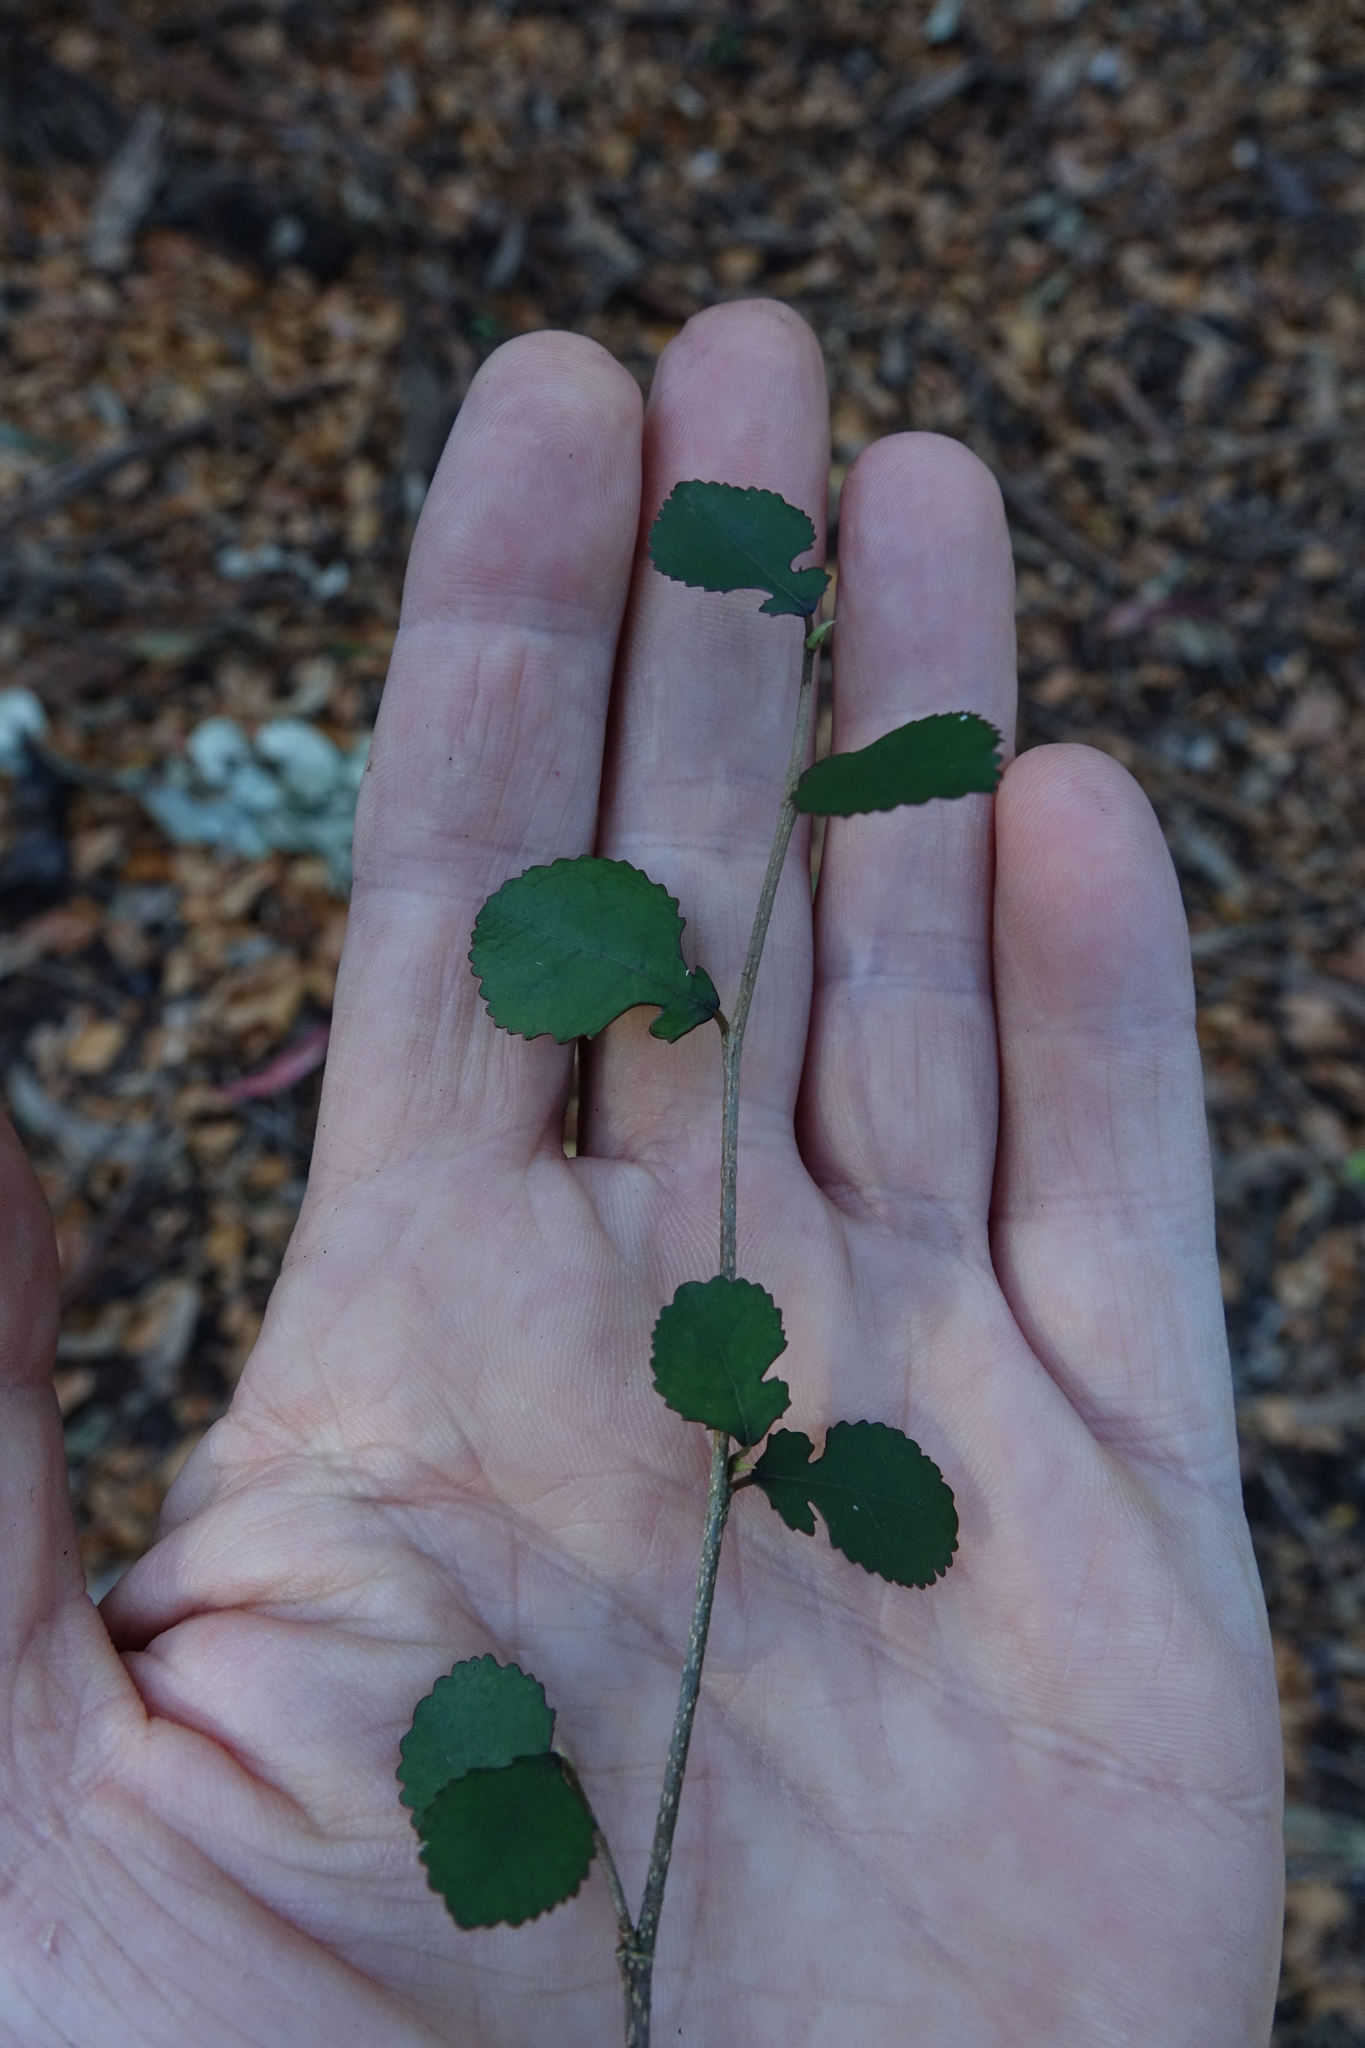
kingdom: Plantae
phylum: Tracheophyta
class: Magnoliopsida
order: Rosales
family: Moraceae
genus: Paratrophis
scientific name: Paratrophis microphylla
